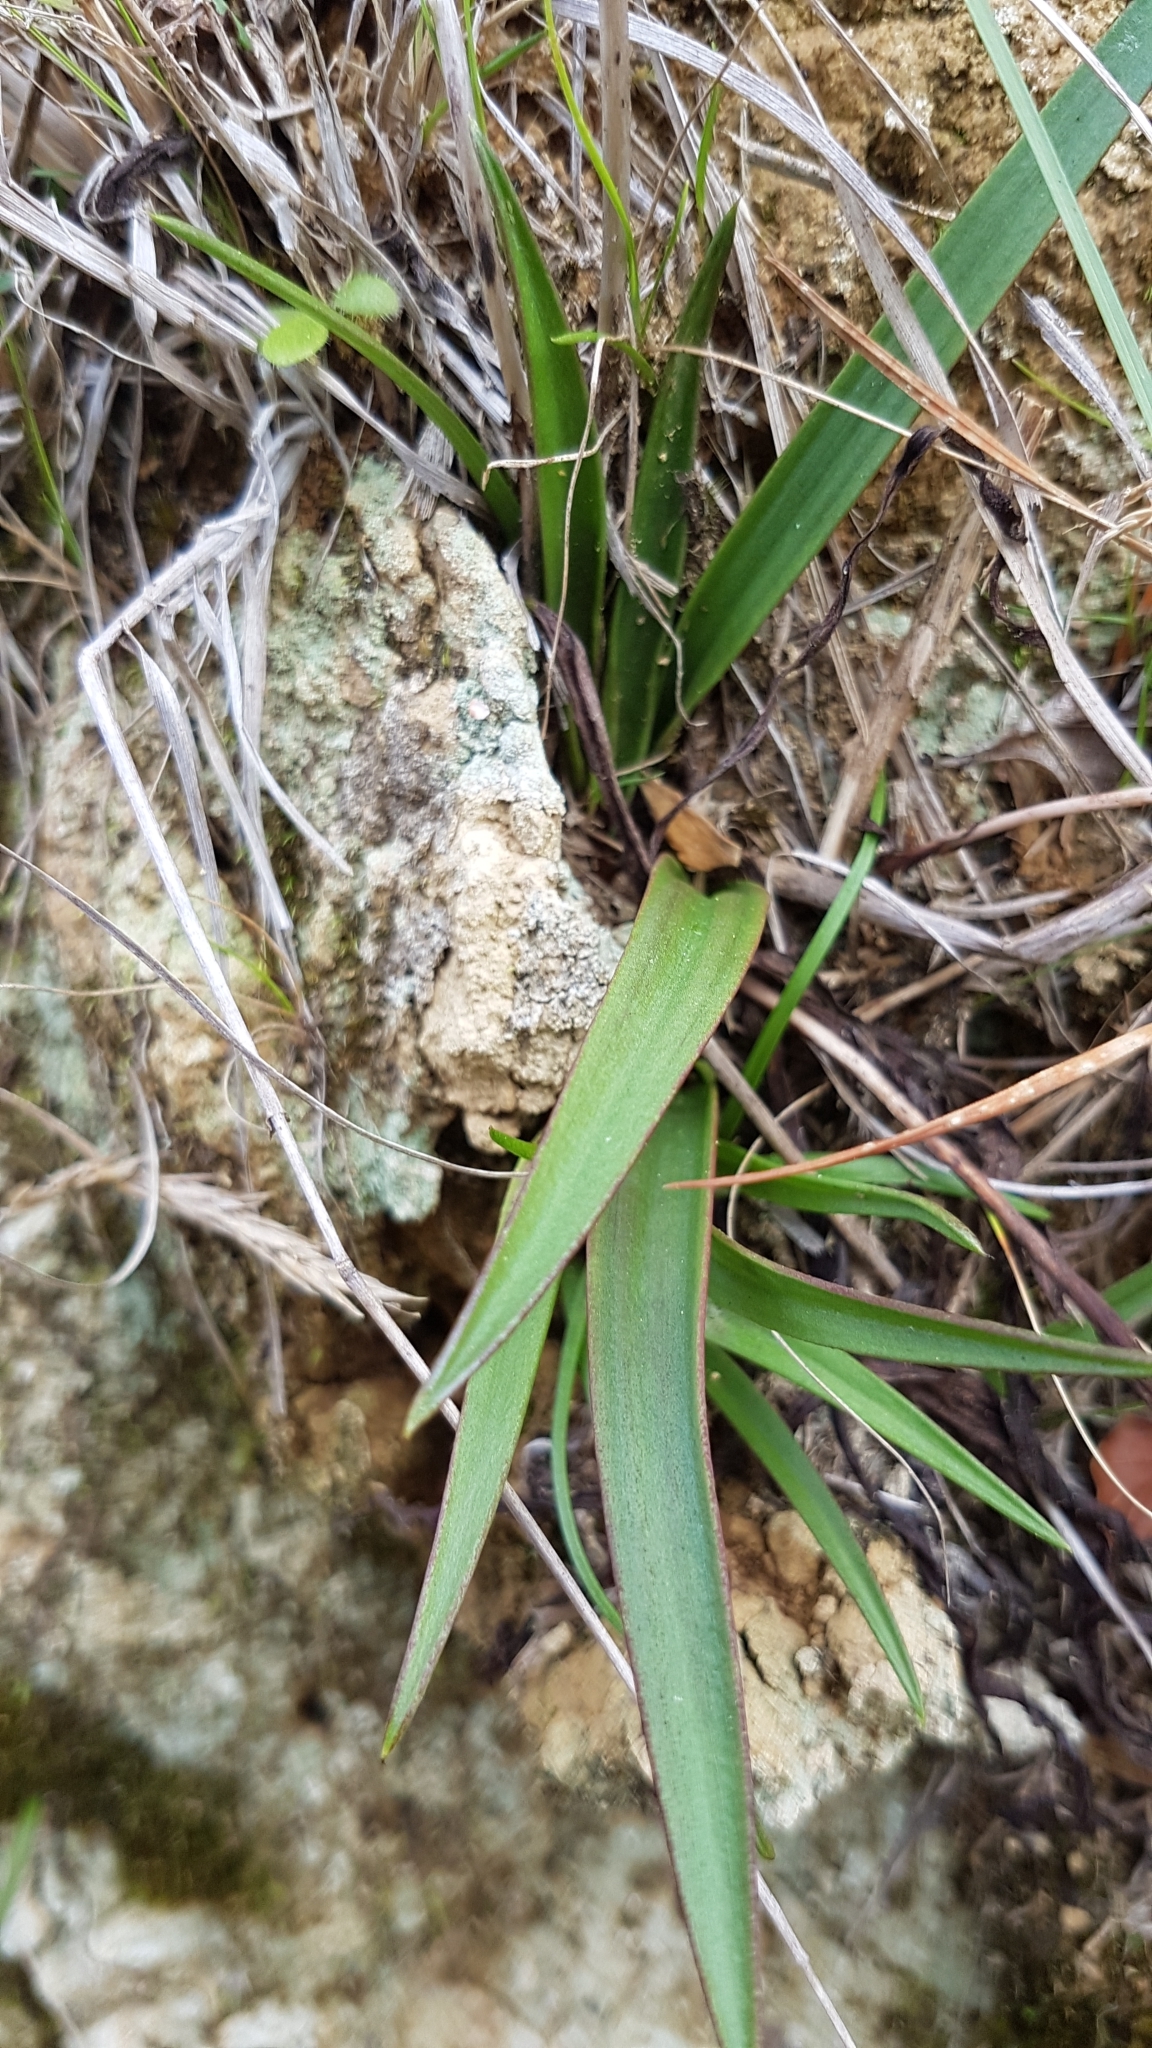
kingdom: Plantae
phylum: Tracheophyta
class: Liliopsida
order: Asparagales
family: Orchidaceae
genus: Thelymitra
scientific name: Thelymitra longifolia
